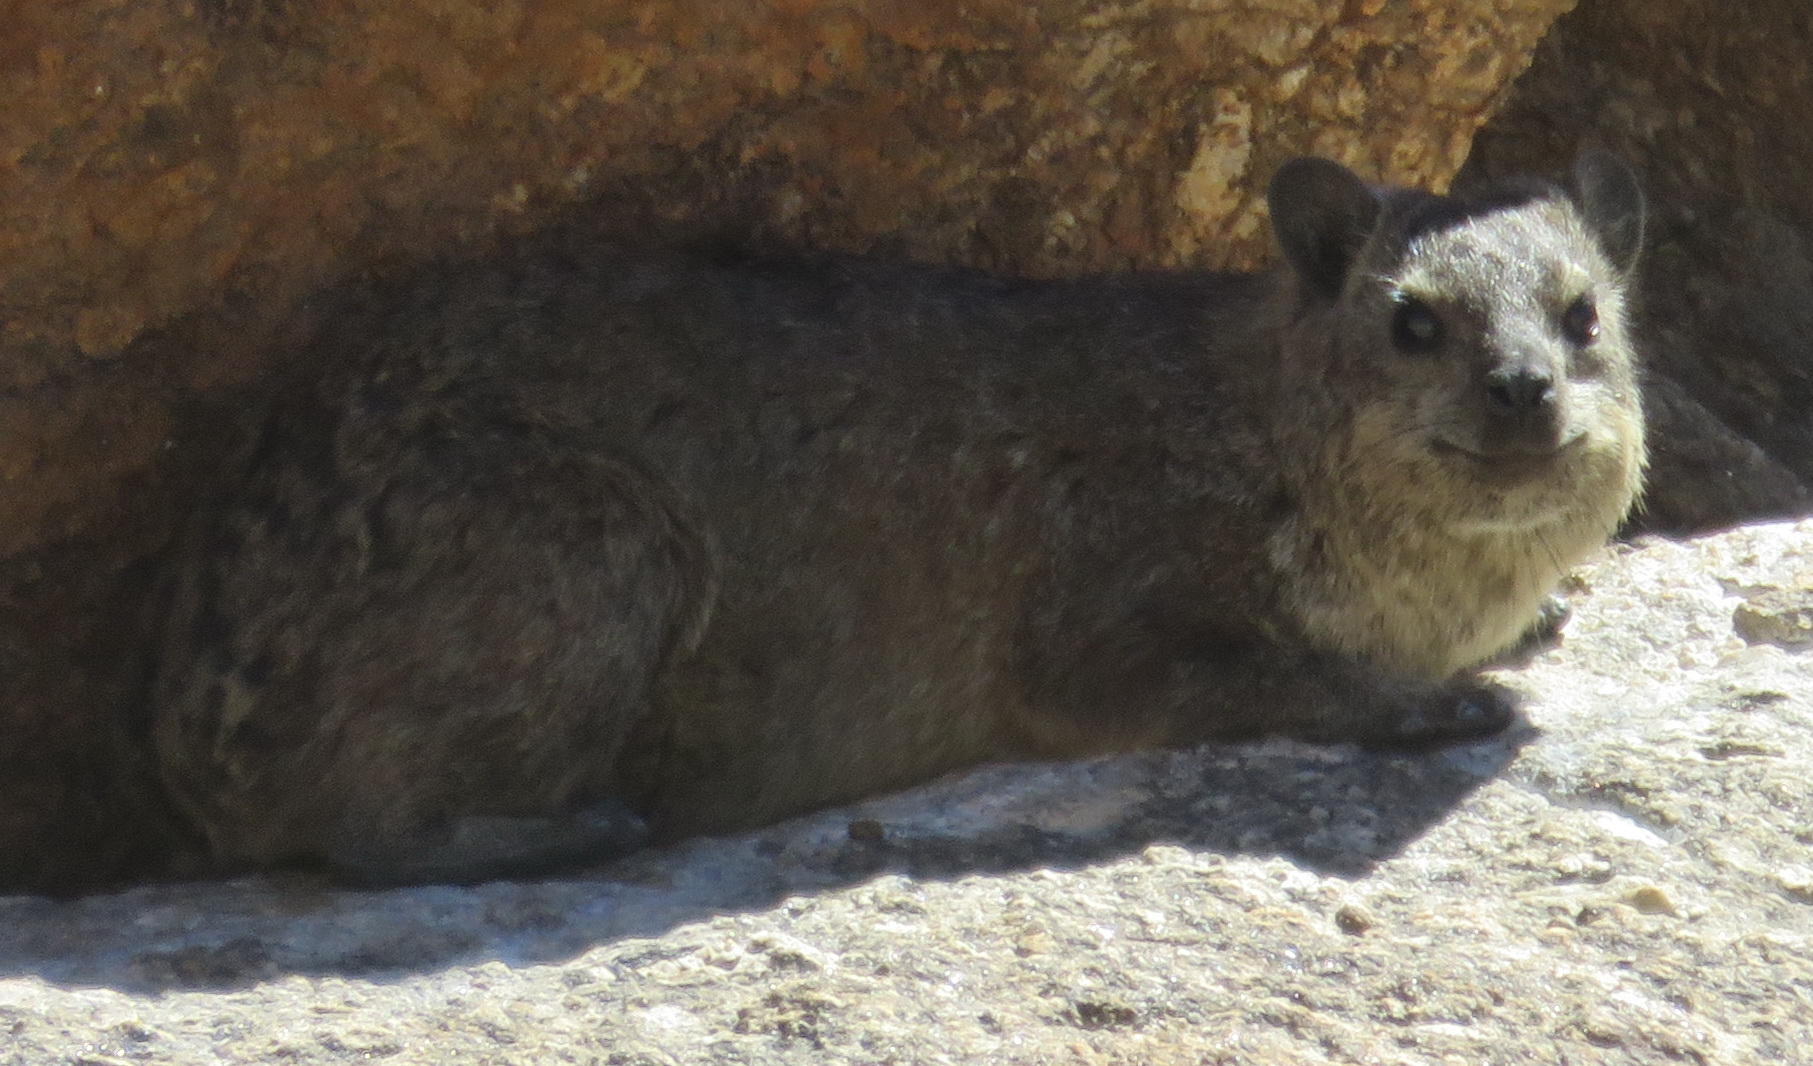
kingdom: Animalia
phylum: Chordata
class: Mammalia
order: Hyracoidea
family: Procaviidae
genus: Procavia
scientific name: Procavia capensis
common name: Rock hyrax
